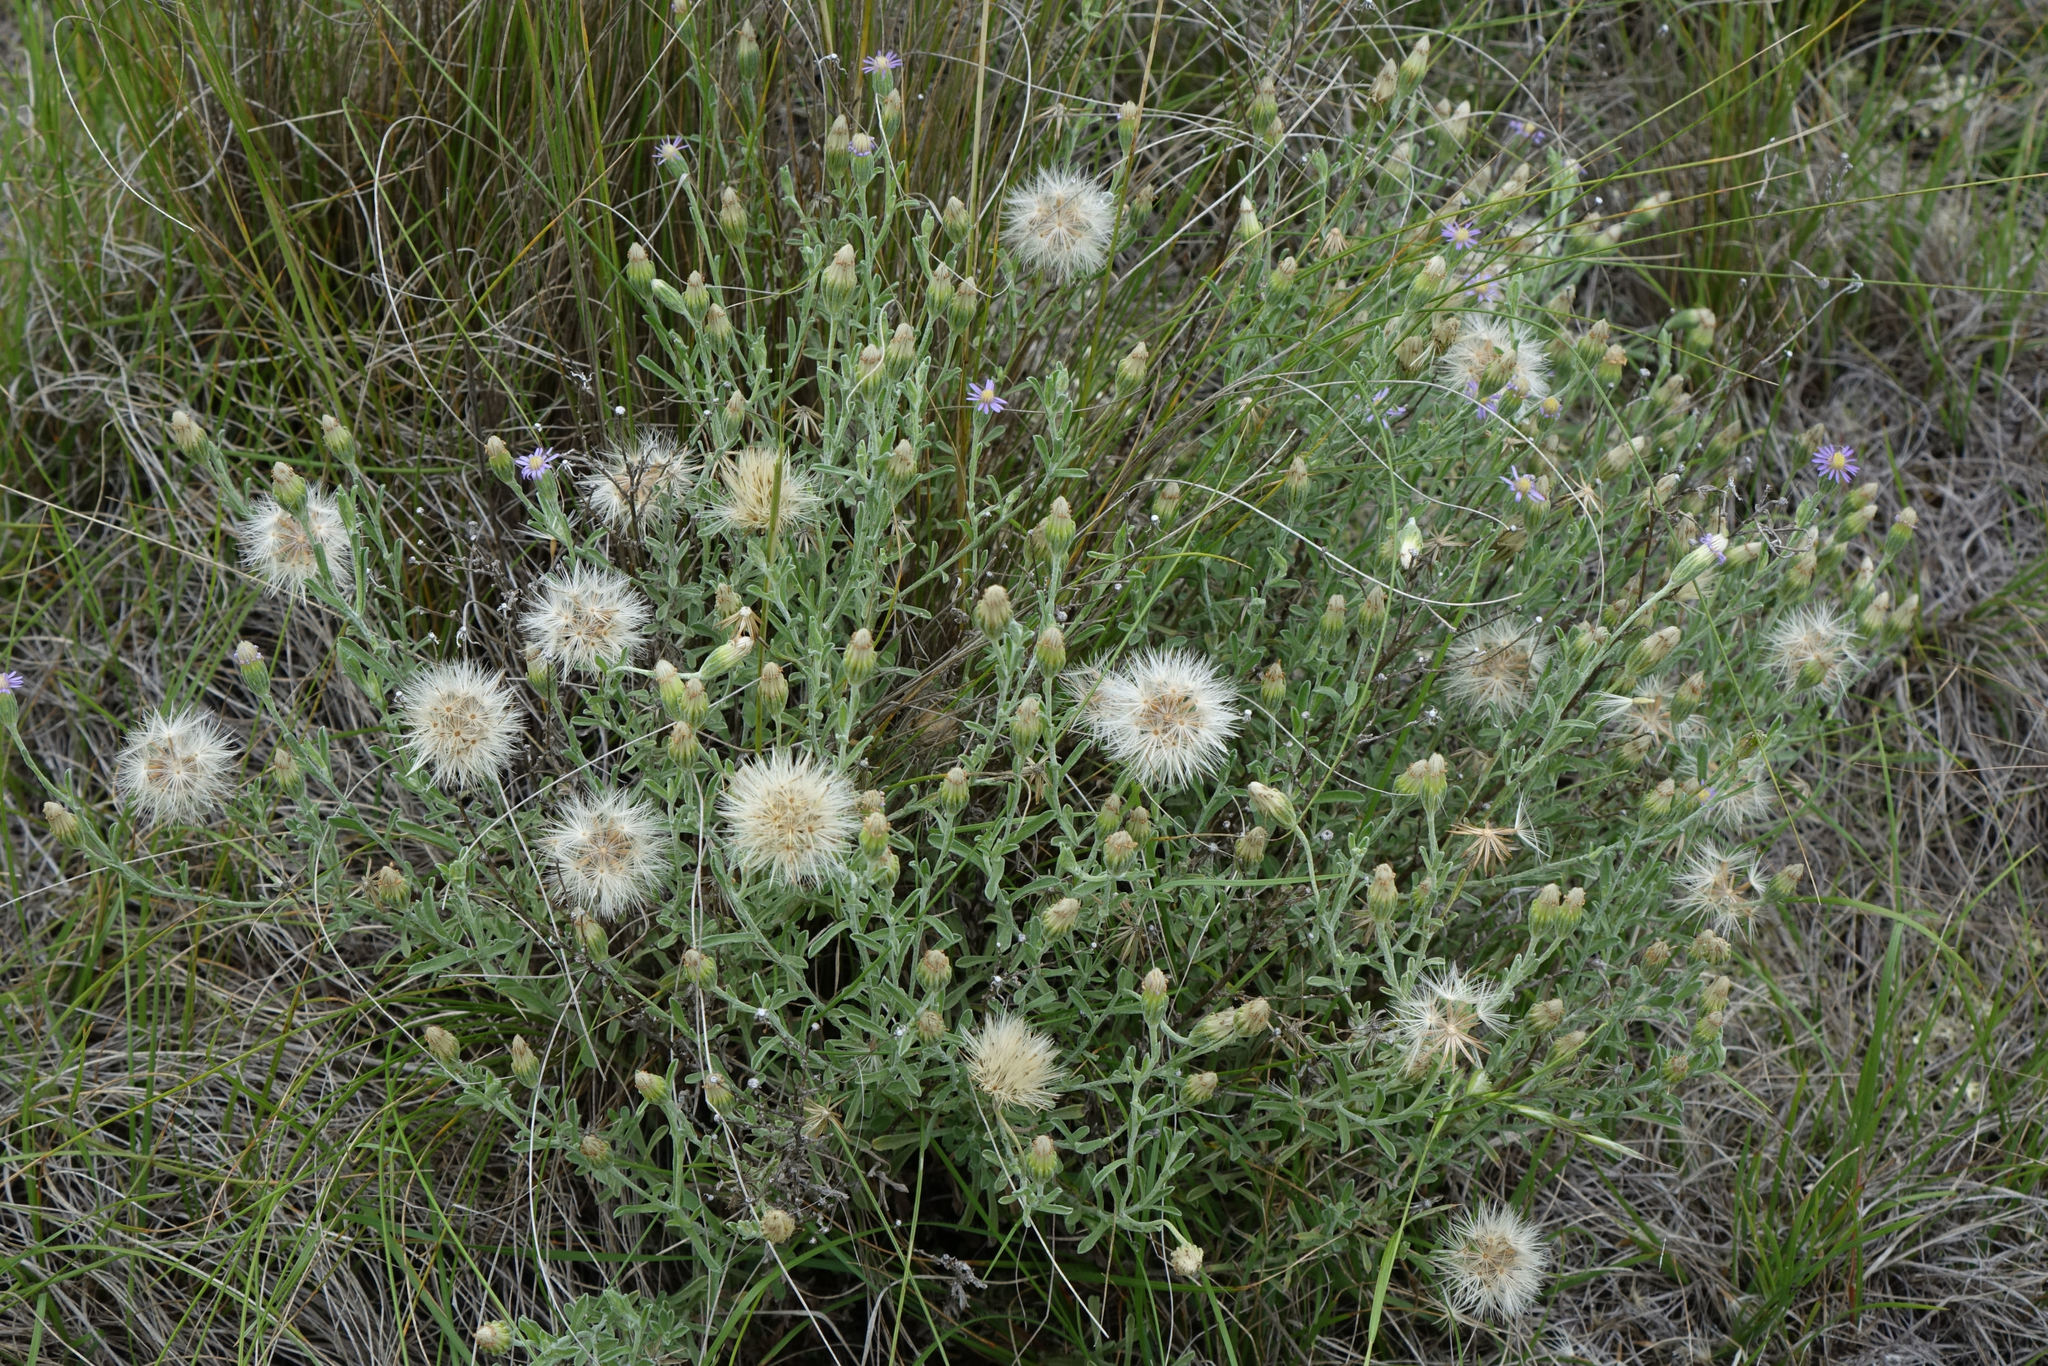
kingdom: Plantae
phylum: Tracheophyta
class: Magnoliopsida
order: Asterales
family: Asteraceae
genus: Vittadinia
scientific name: Vittadinia gracilis
